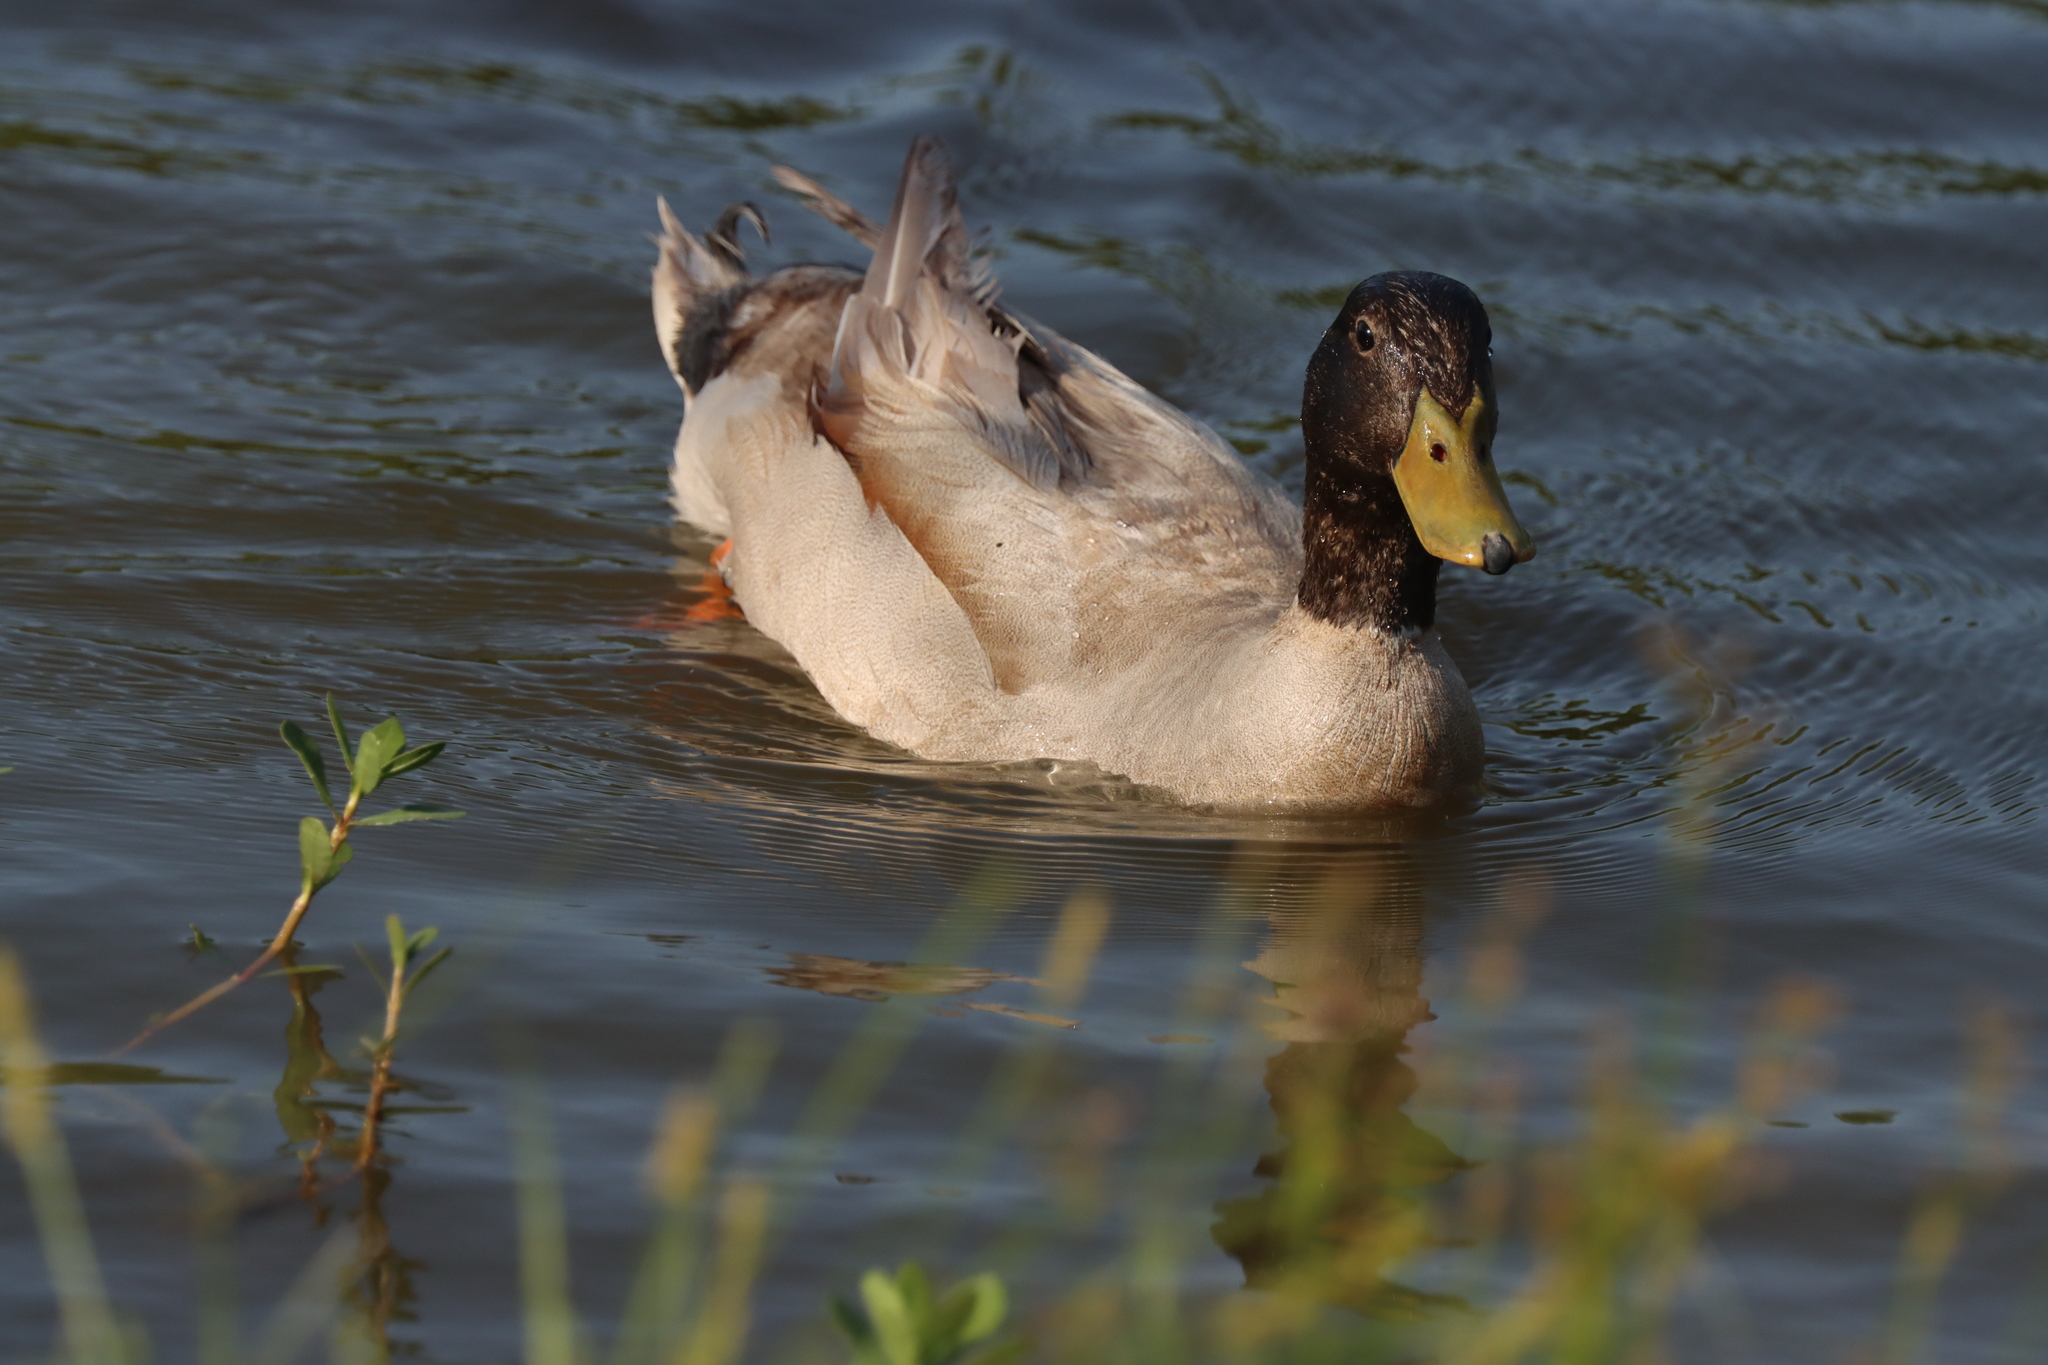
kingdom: Animalia
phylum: Chordata
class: Aves
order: Anseriformes
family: Anatidae
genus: Anas
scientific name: Anas platyrhynchos
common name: Mallard
